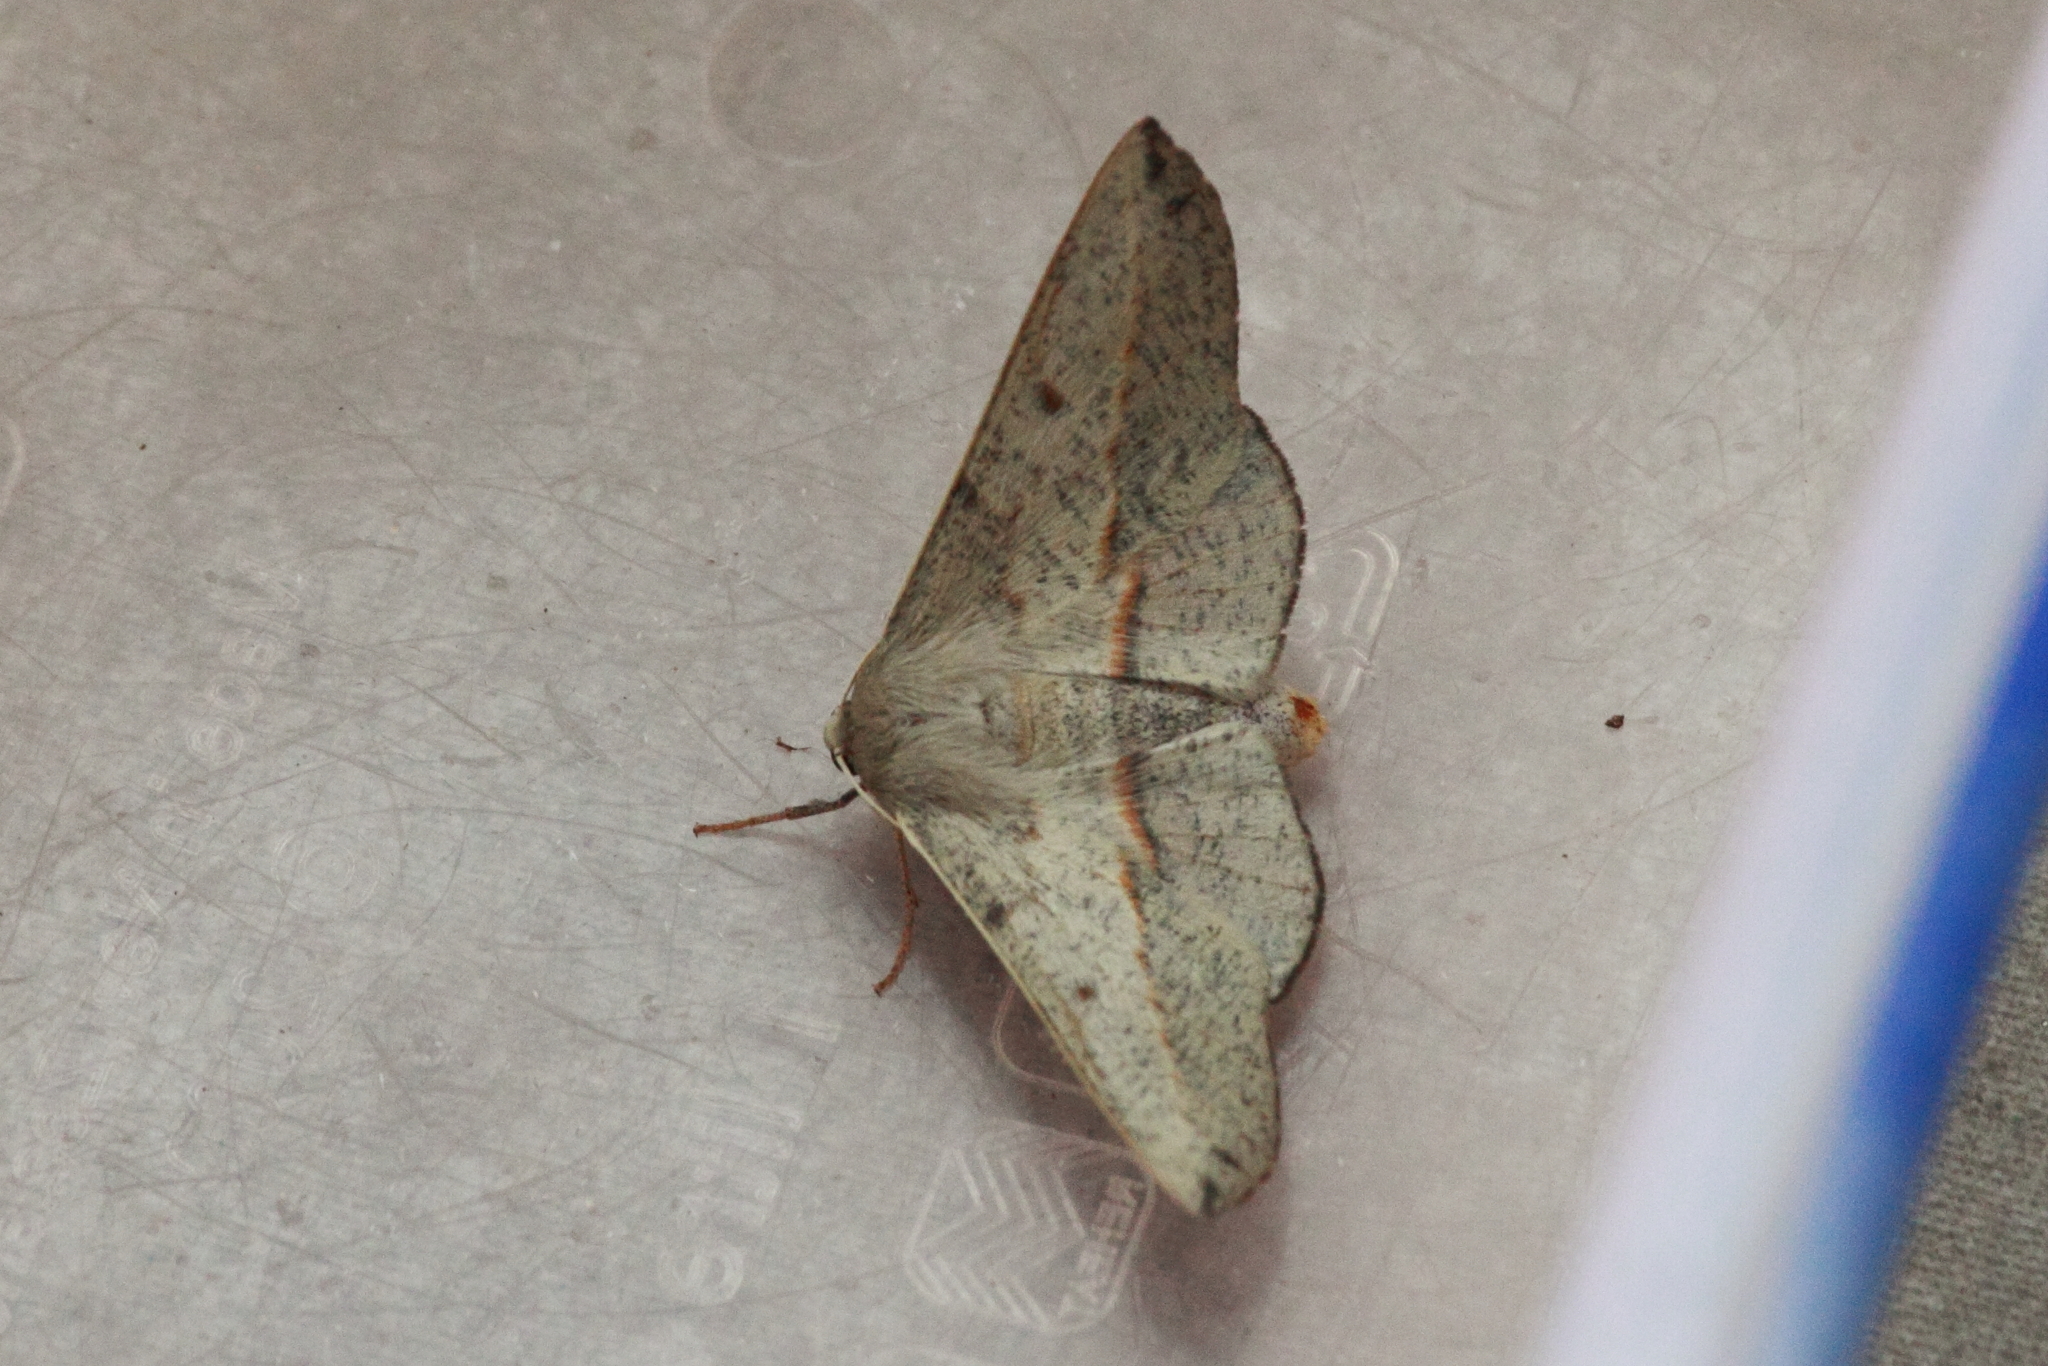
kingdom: Animalia
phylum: Arthropoda
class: Insecta
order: Lepidoptera
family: Geometridae
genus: Antictenia
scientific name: Antictenia punctunculus
